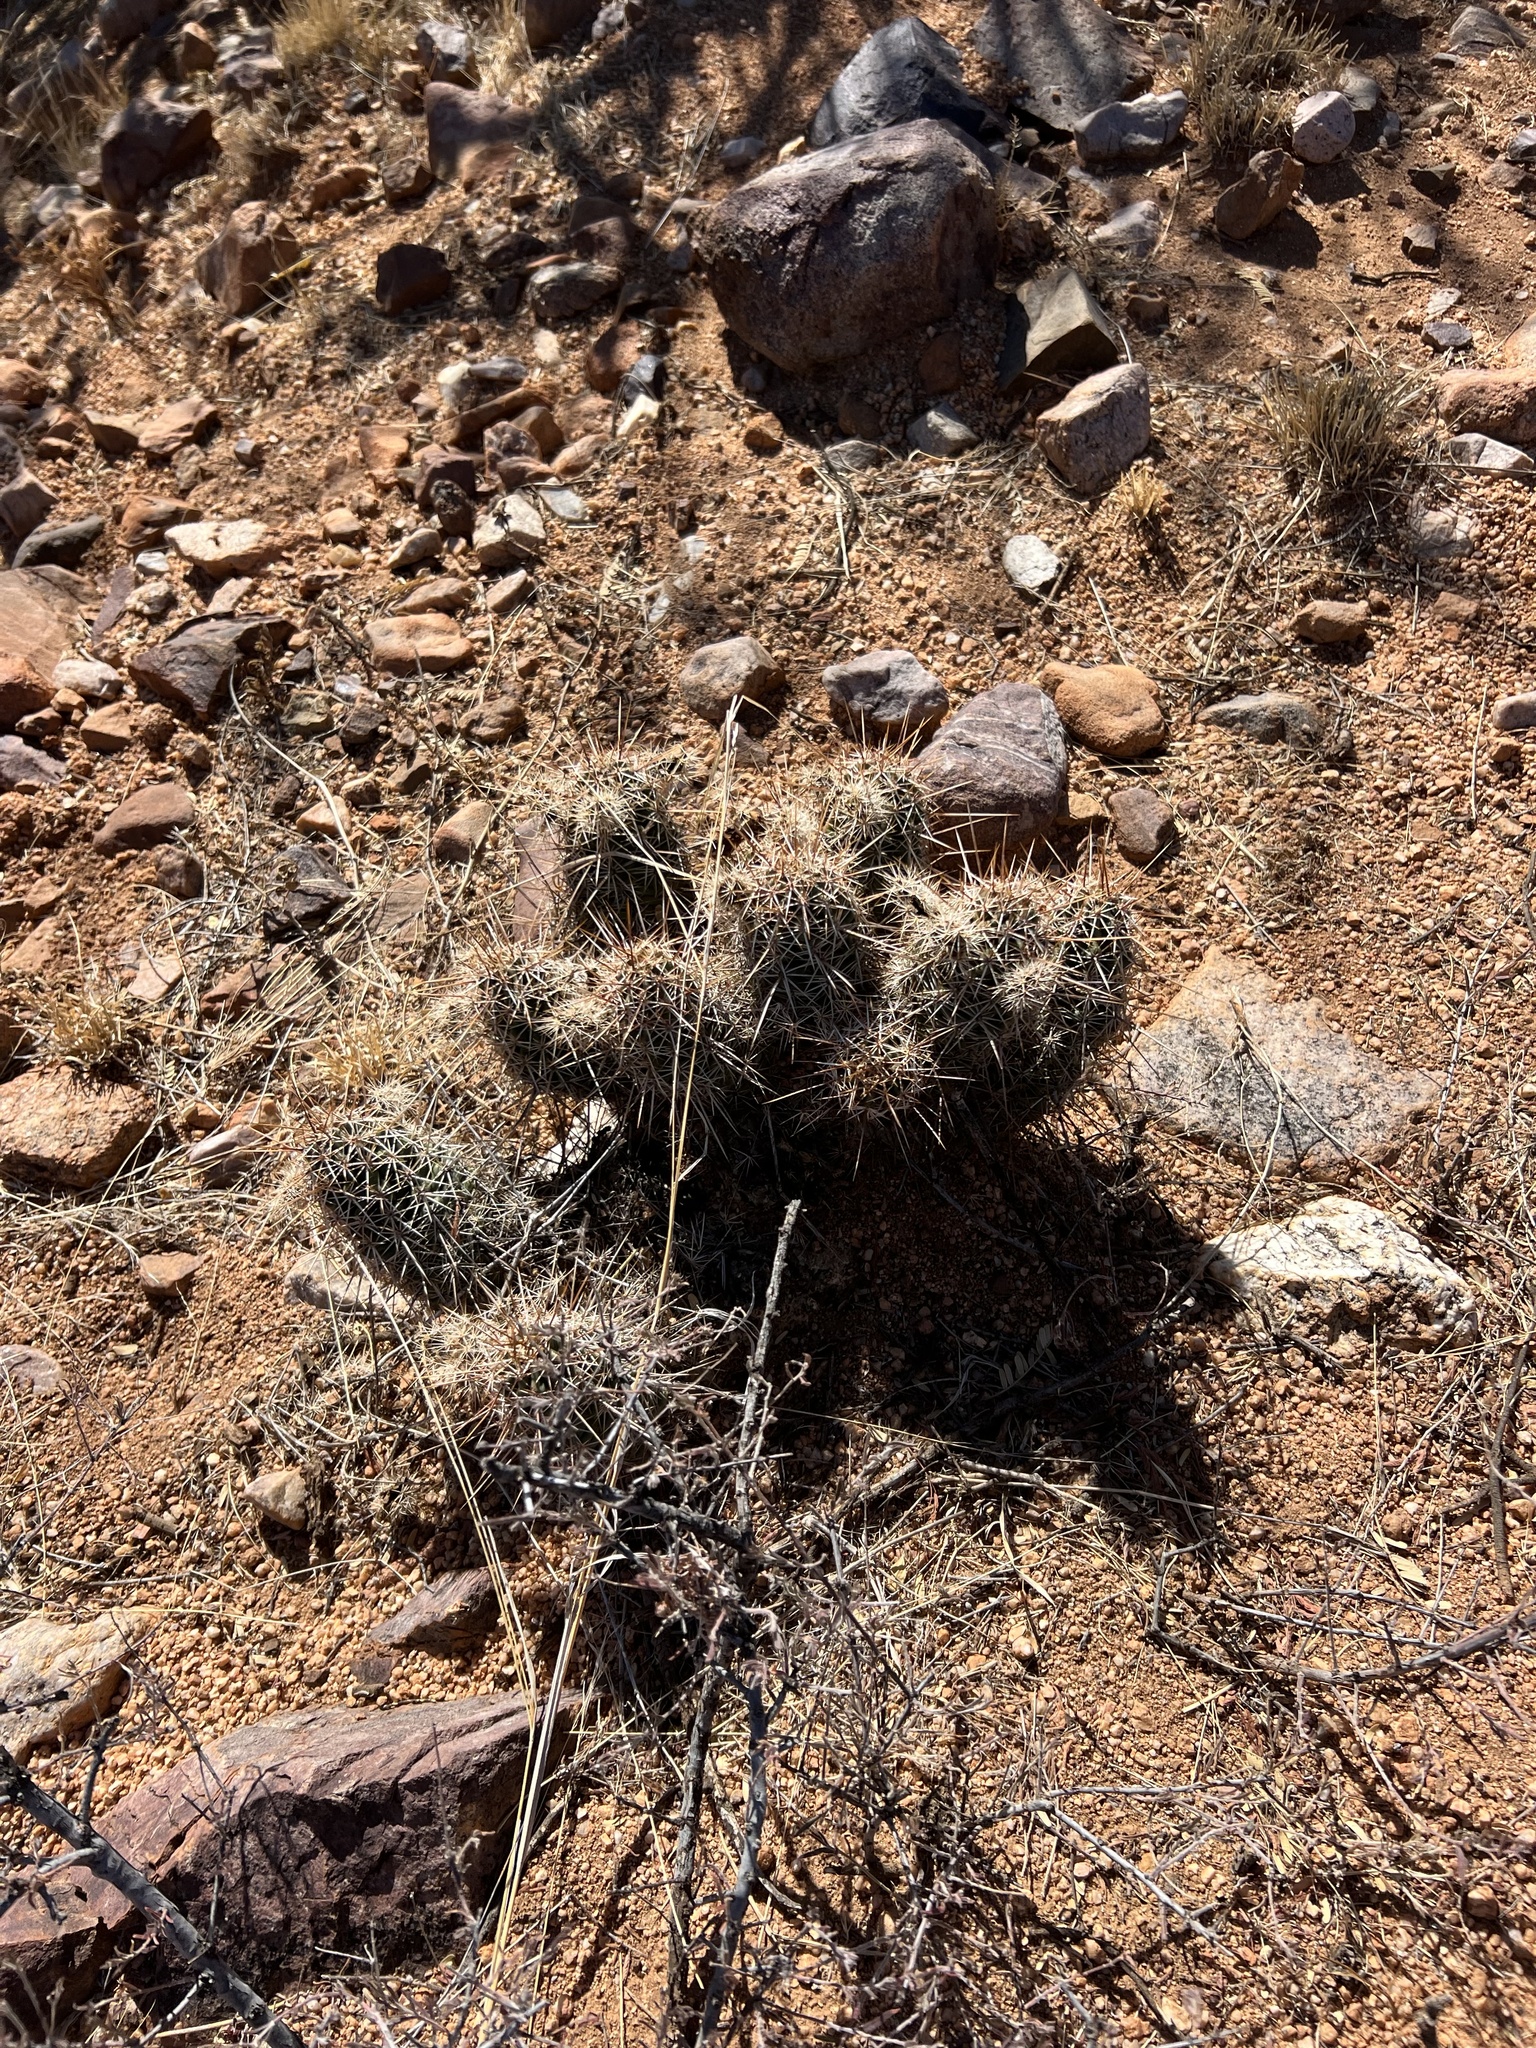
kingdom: Plantae
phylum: Tracheophyta
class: Magnoliopsida
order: Caryophyllales
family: Cactaceae
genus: Echinocereus
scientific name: Echinocereus fasciculatus
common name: Bundle hedgehog
